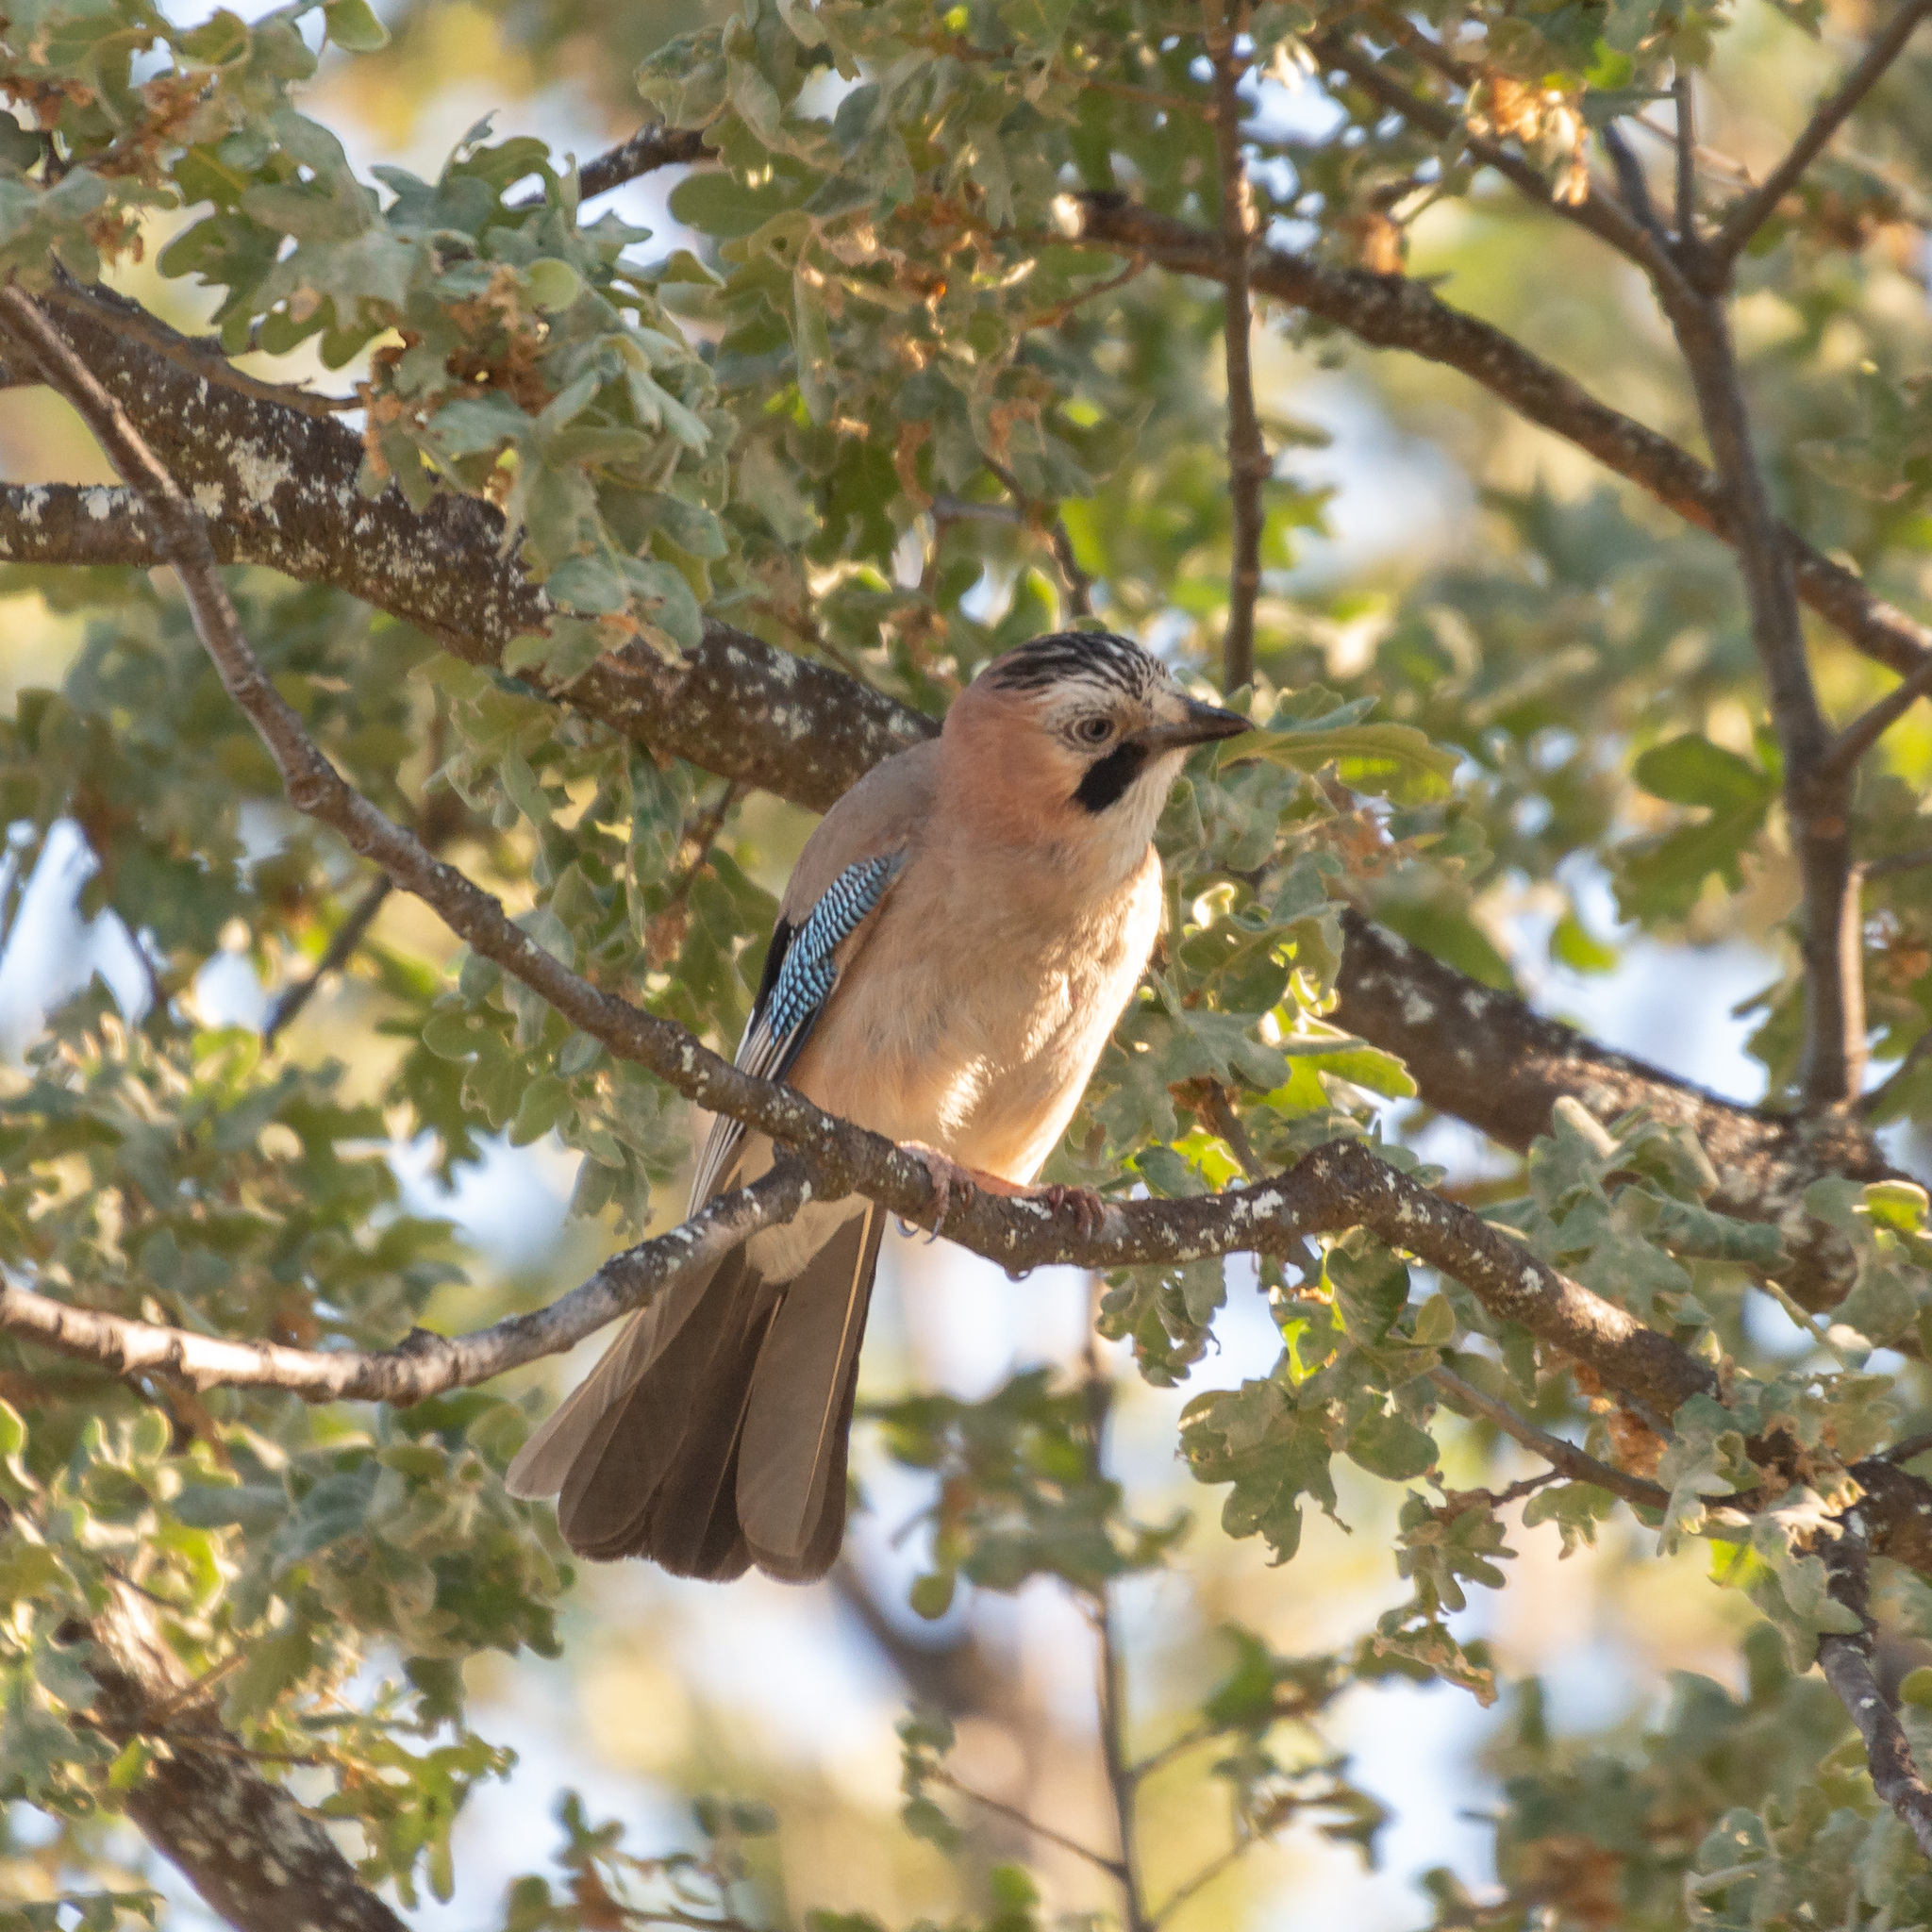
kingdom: Animalia
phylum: Chordata
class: Aves
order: Passeriformes
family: Corvidae
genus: Garrulus
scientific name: Garrulus glandarius
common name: Eurasian jay
